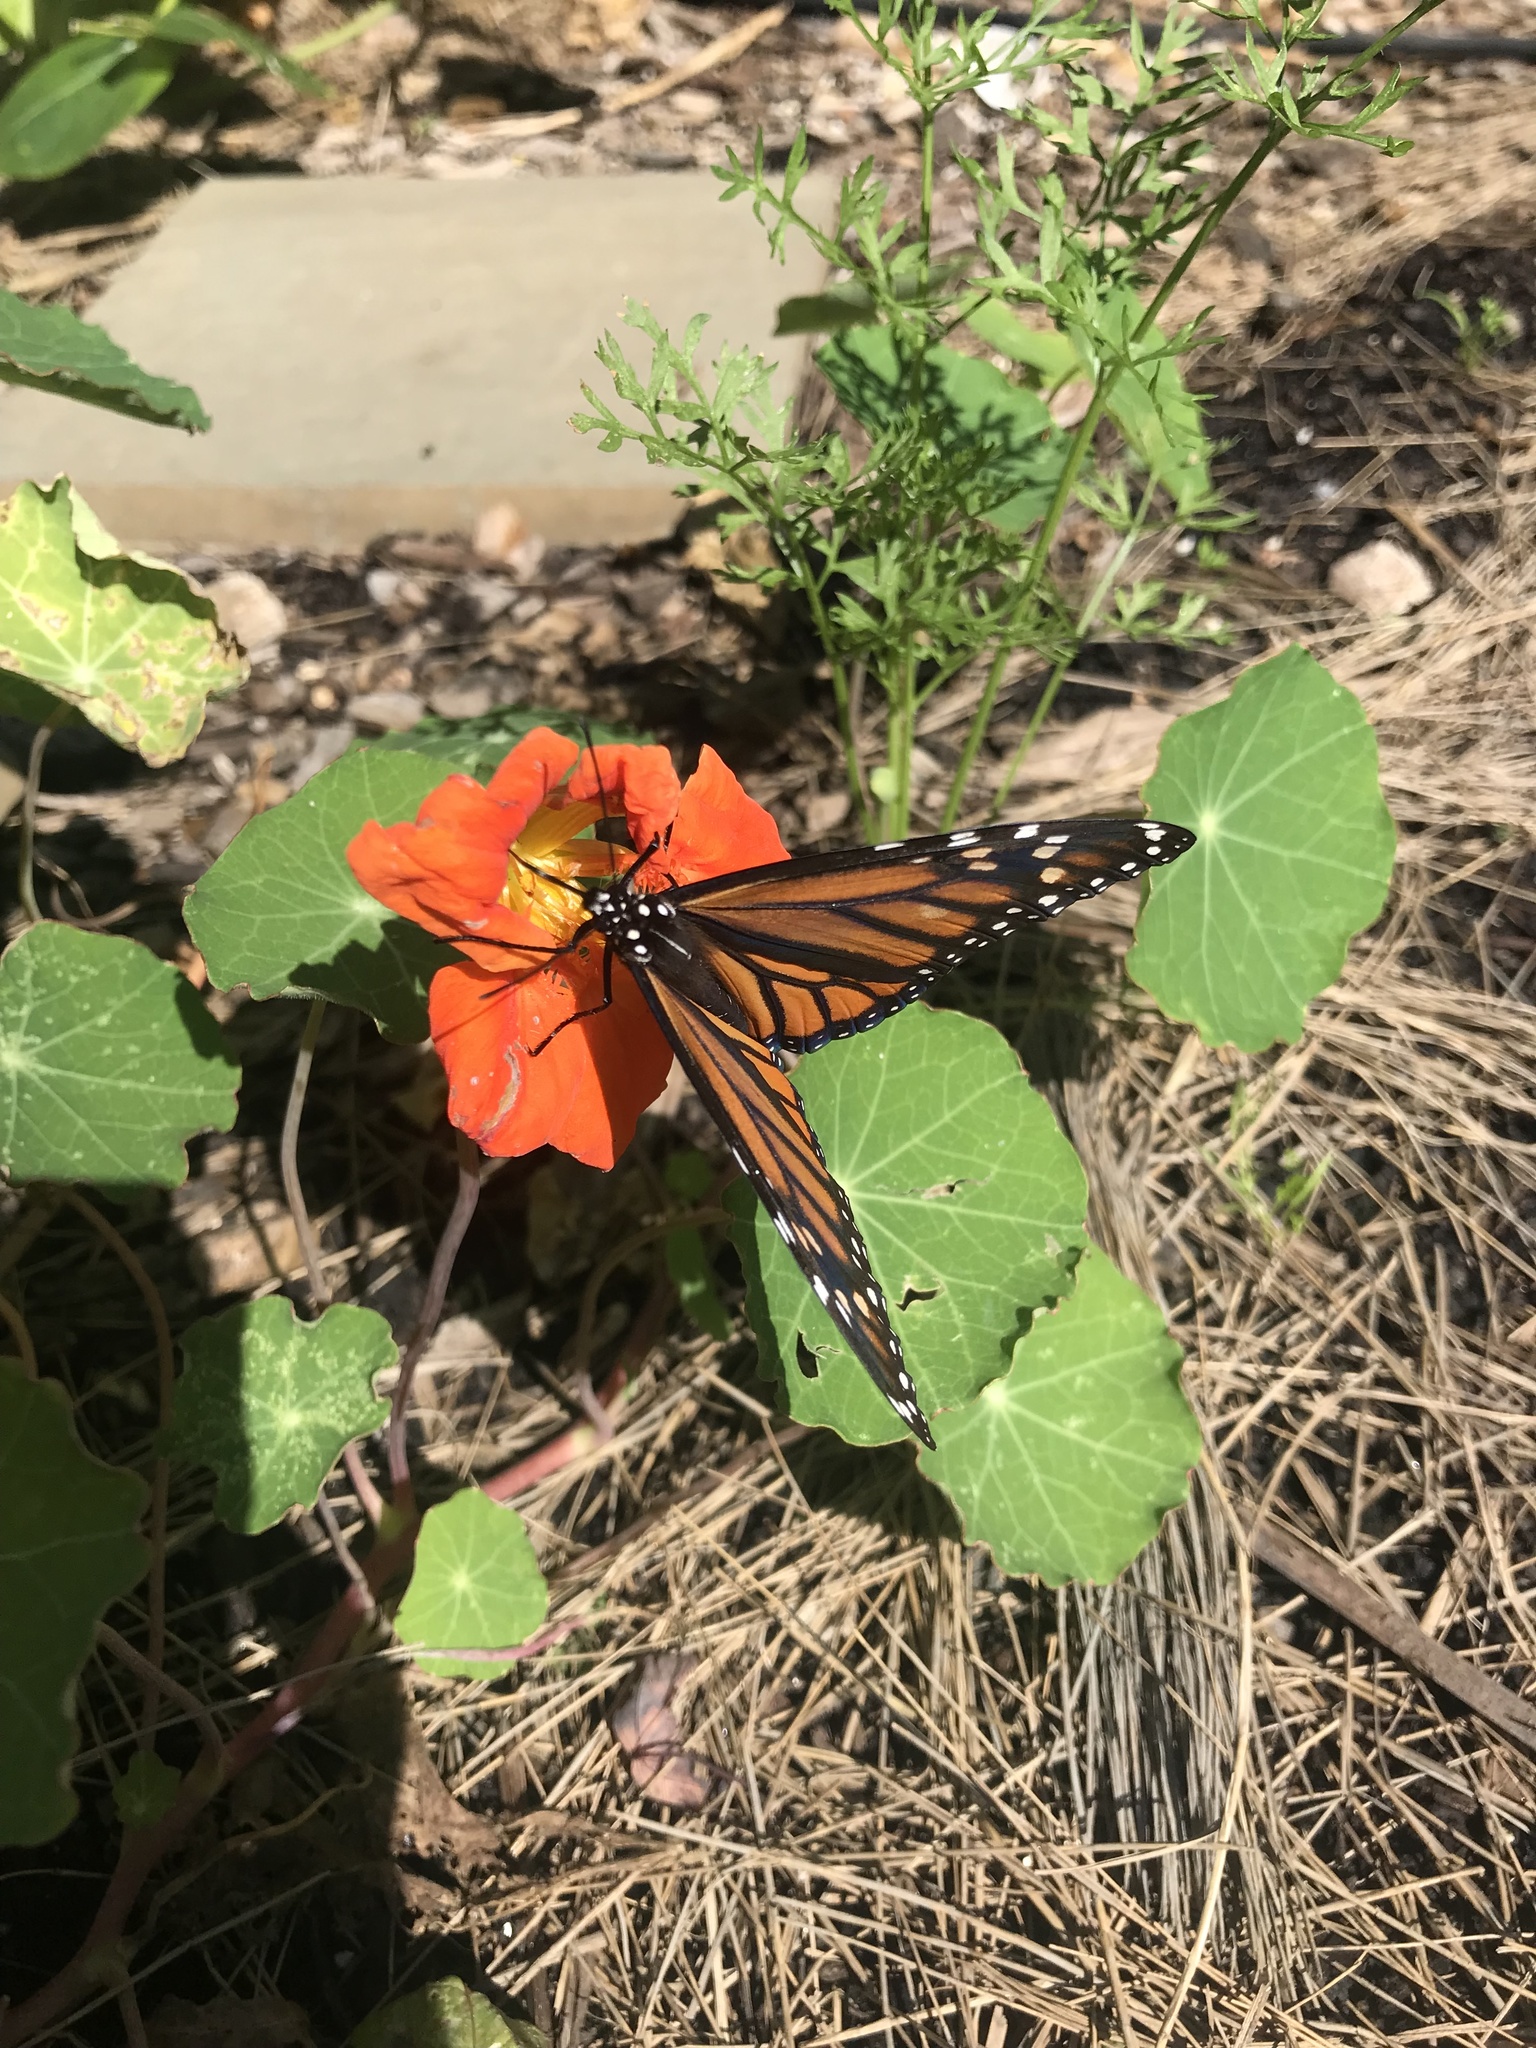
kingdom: Animalia
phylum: Arthropoda
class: Insecta
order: Lepidoptera
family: Nymphalidae
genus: Danaus
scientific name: Danaus plexippus
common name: Monarch
